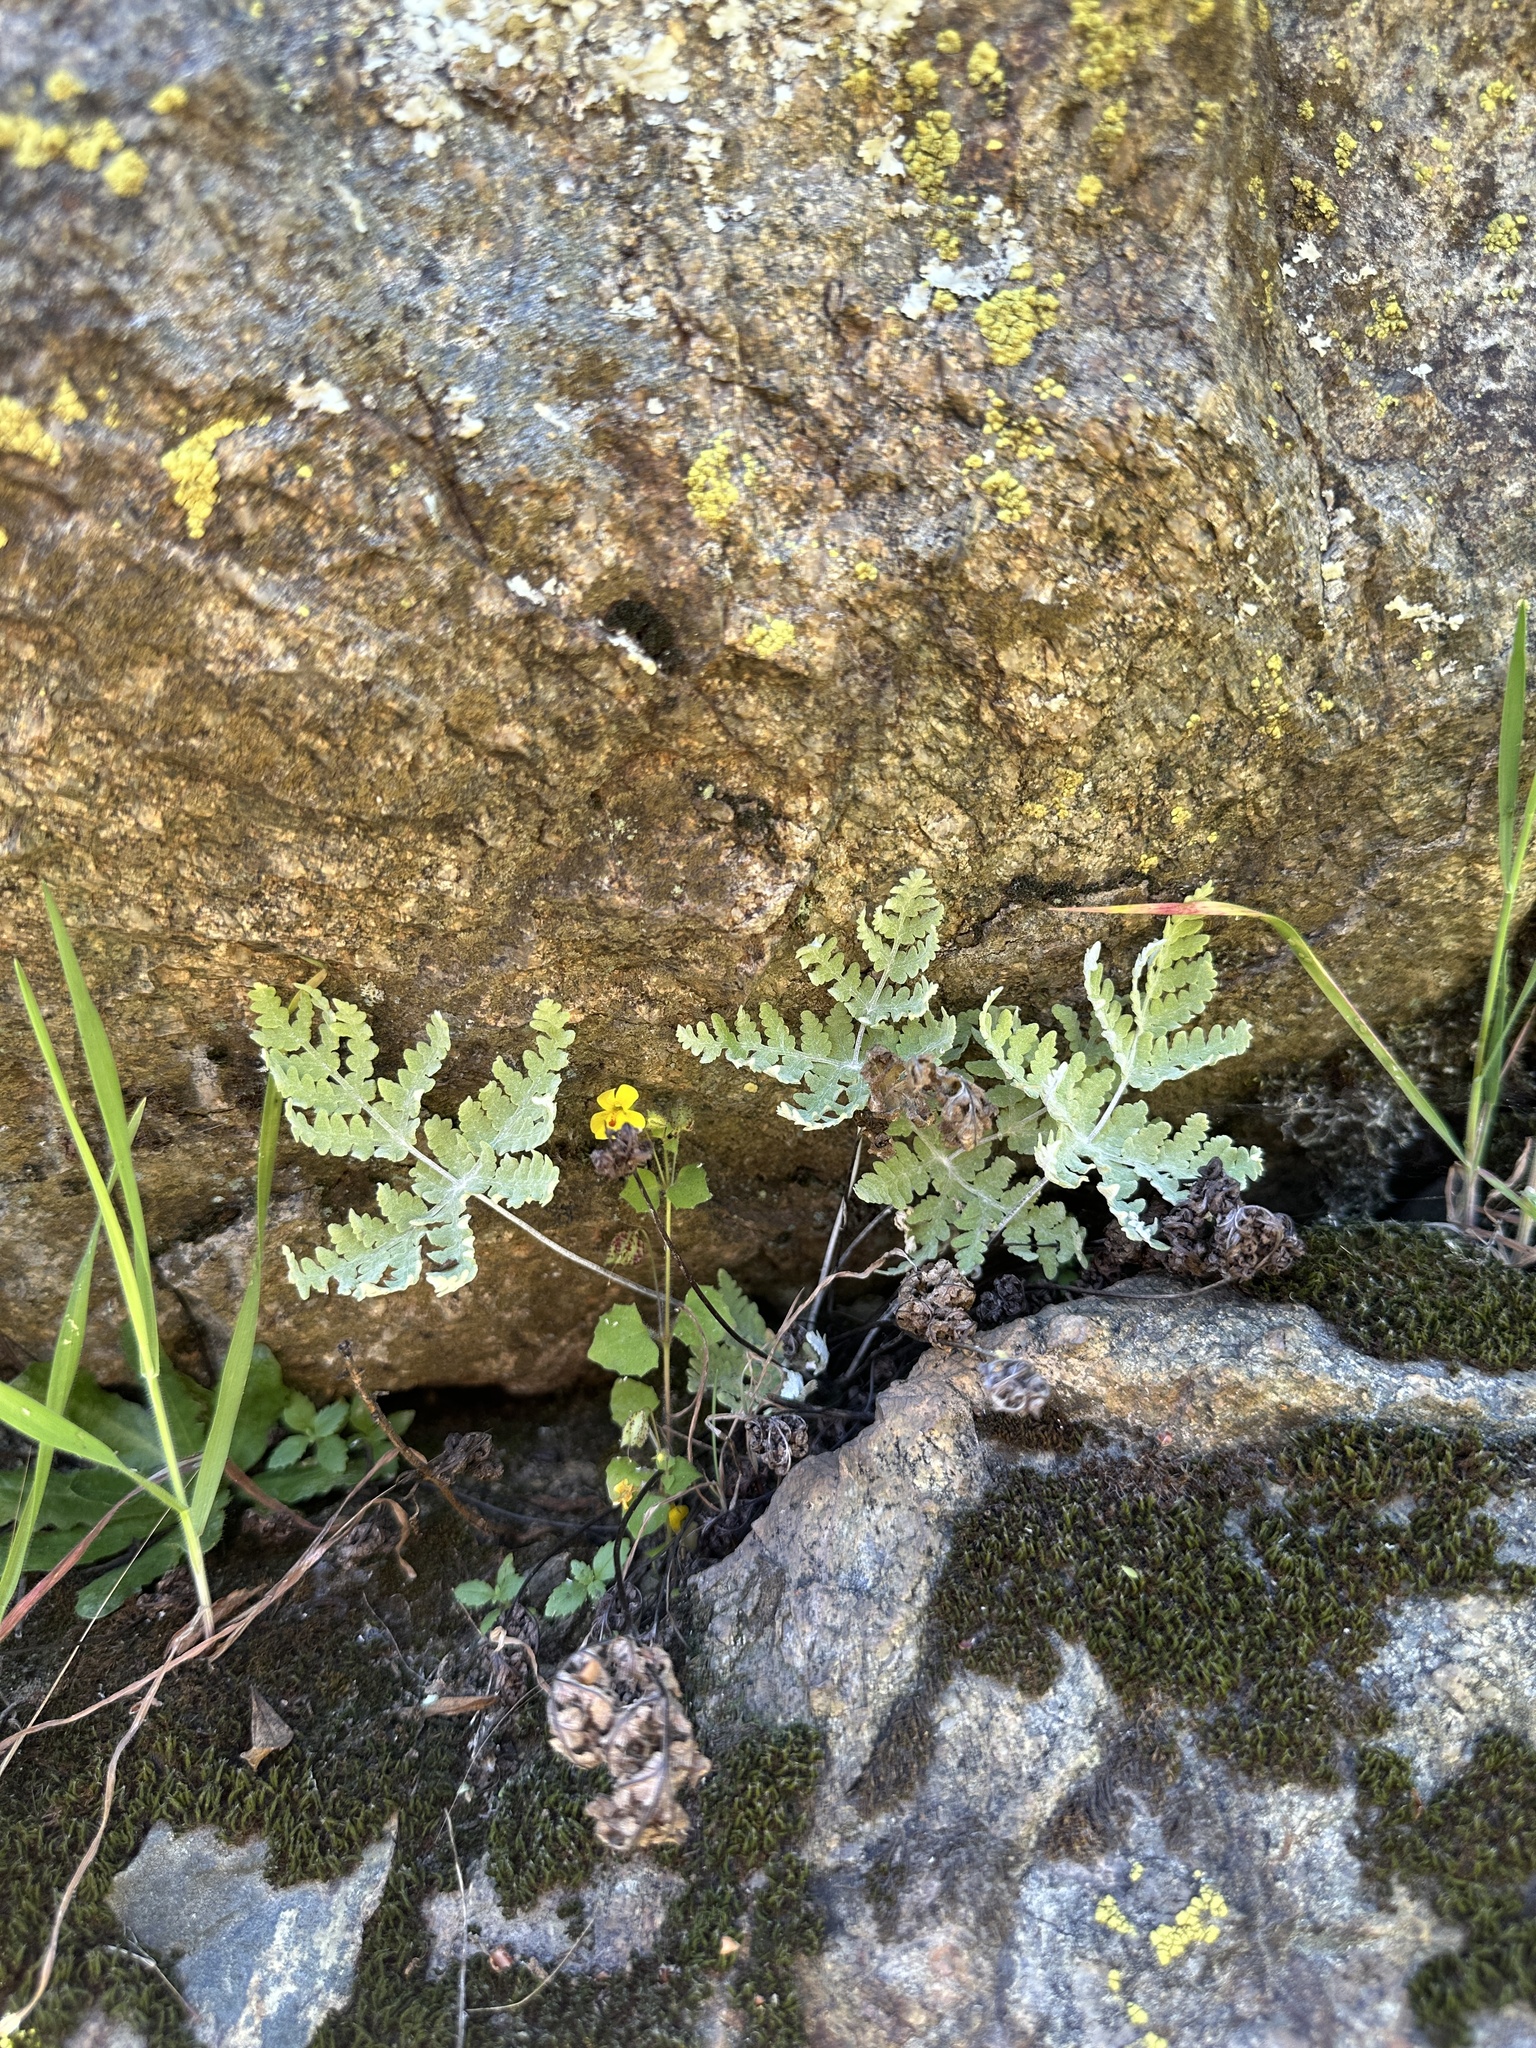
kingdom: Plantae
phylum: Tracheophyta
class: Polypodiopsida
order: Polypodiales
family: Pteridaceae
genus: Pentagramma
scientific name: Pentagramma pallida
